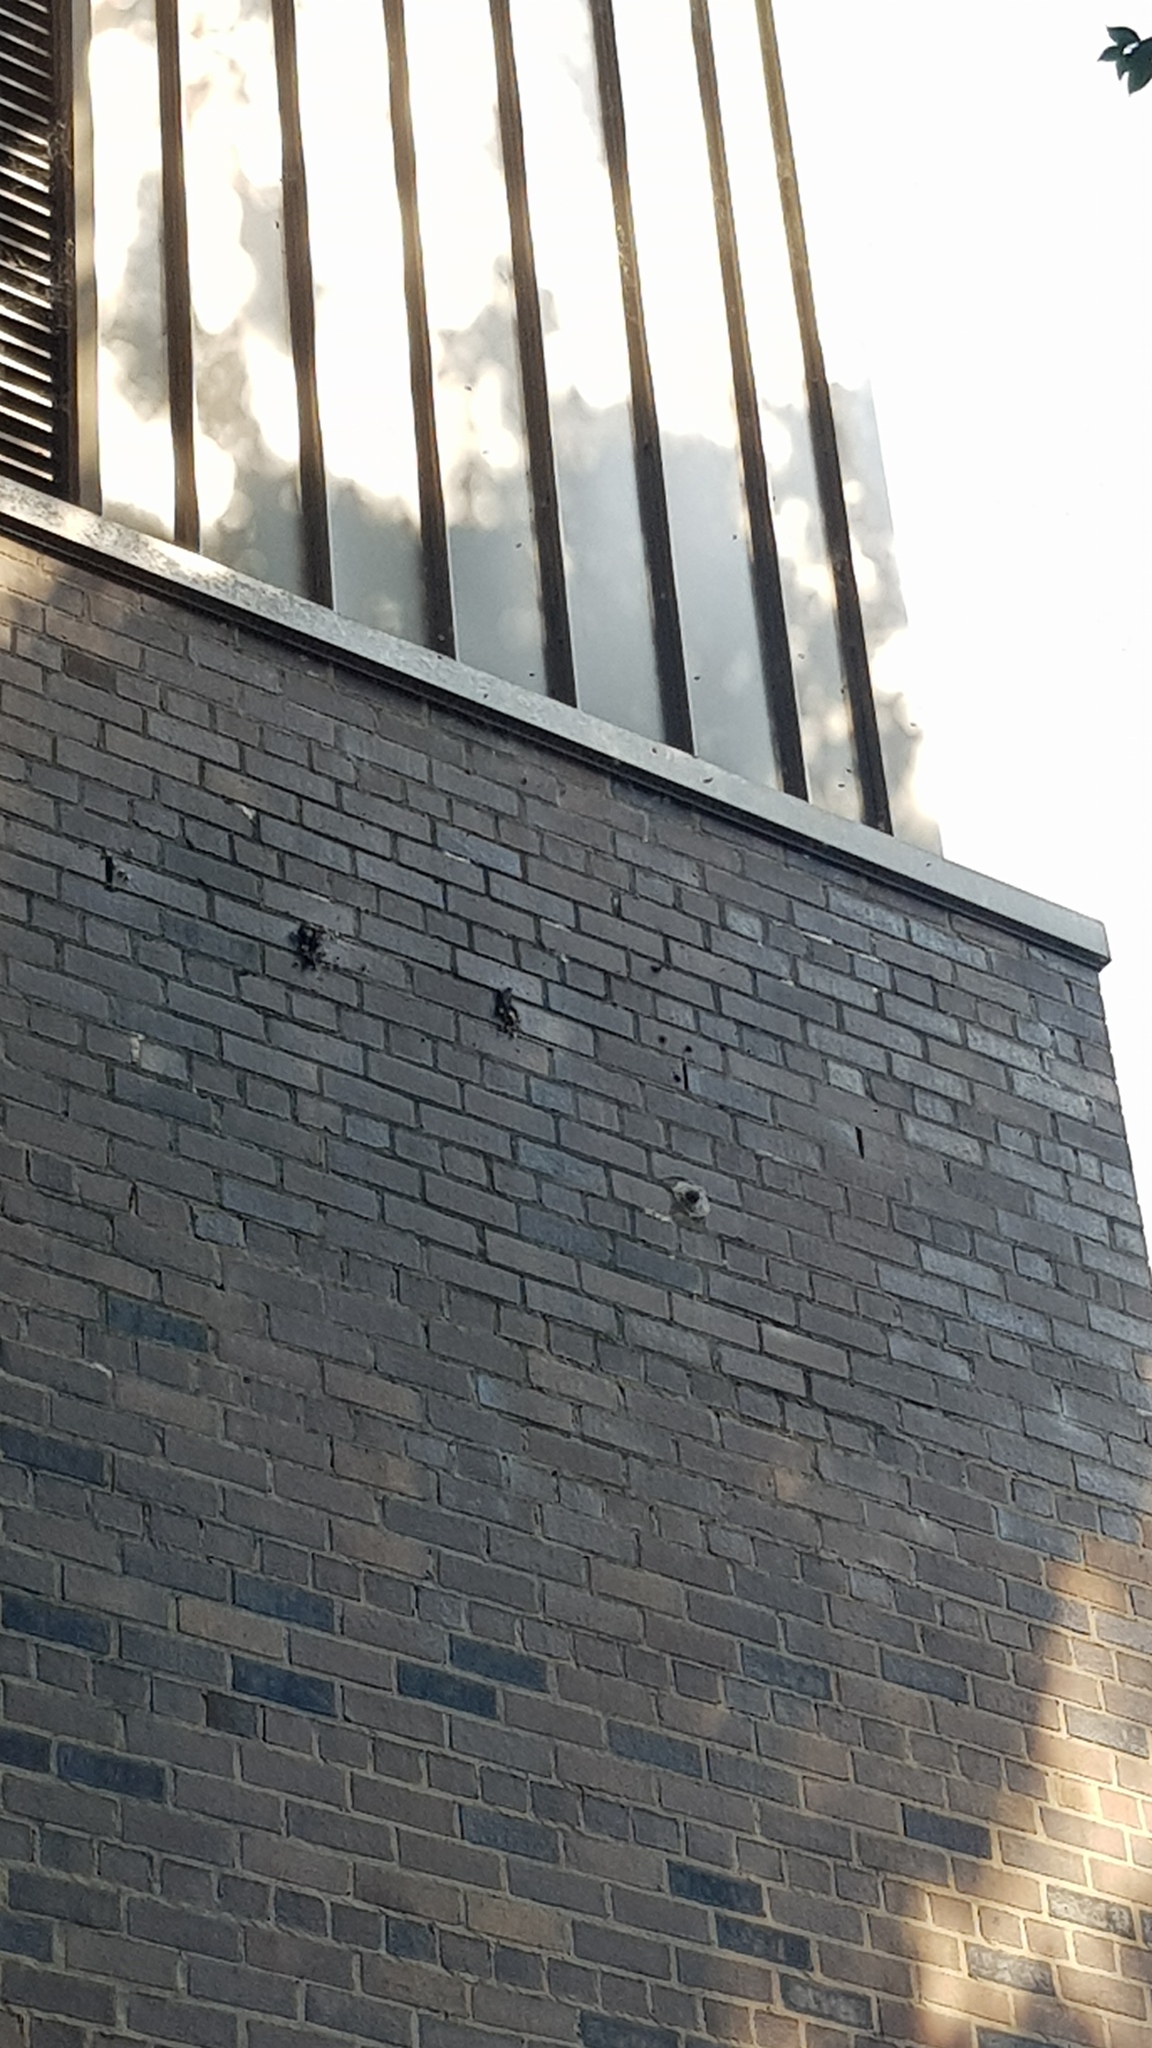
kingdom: Animalia
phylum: Arthropoda
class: Insecta
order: Hymenoptera
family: Apidae
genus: Apis
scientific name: Apis mellifera
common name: Honey bee
